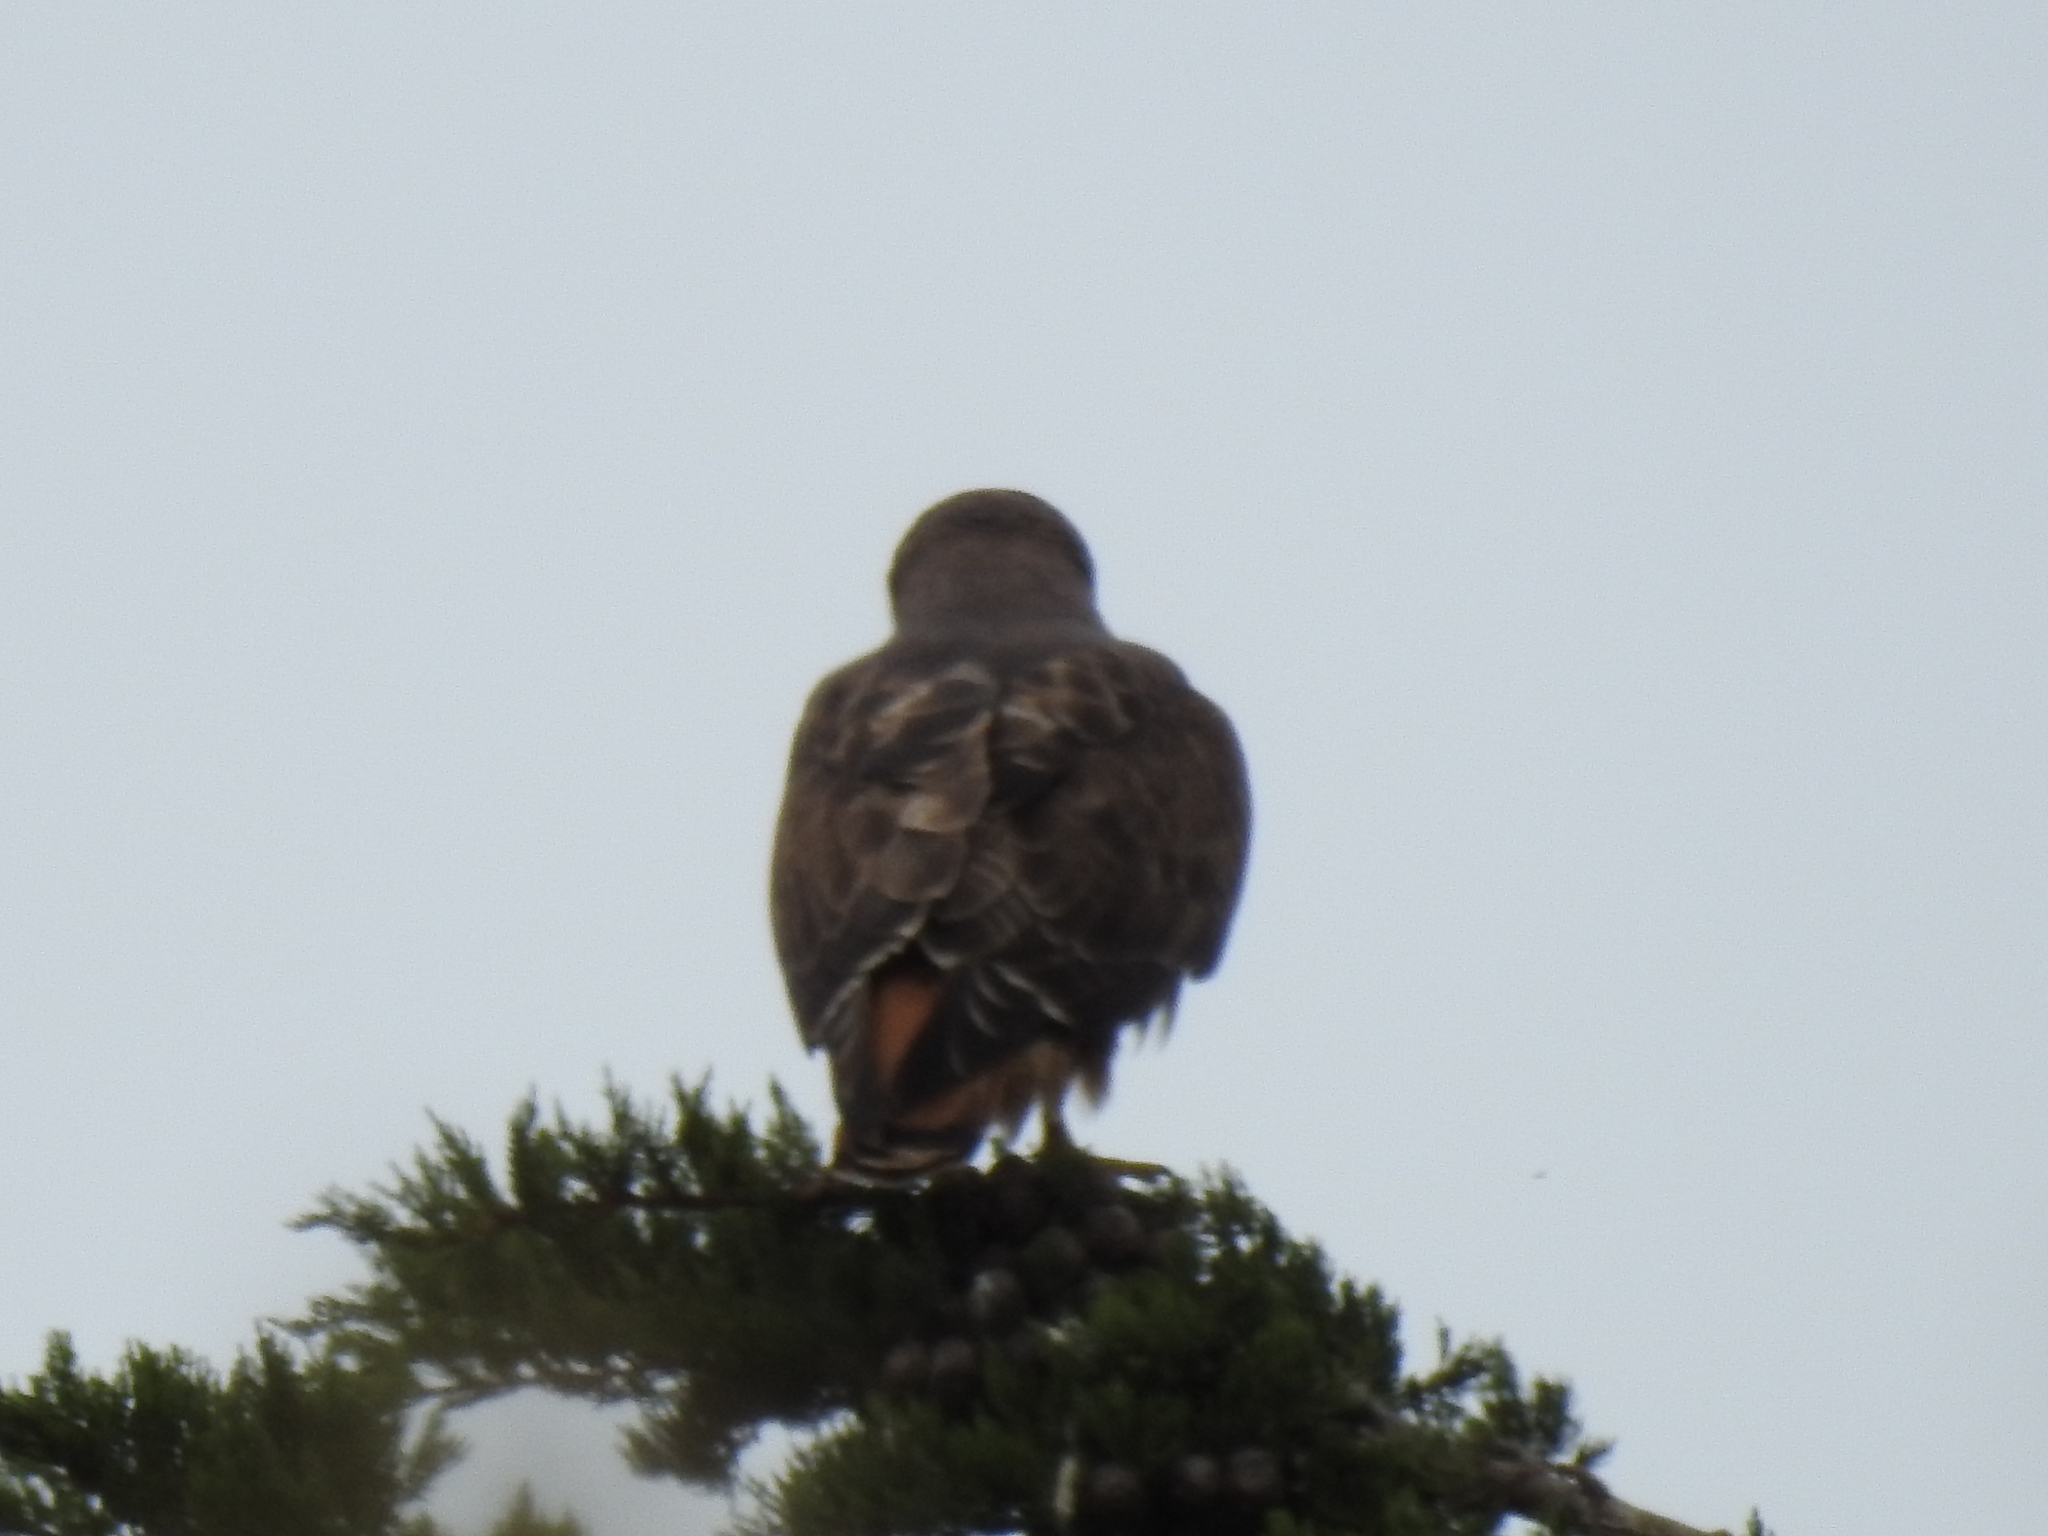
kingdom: Animalia
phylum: Chordata
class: Aves
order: Accipitriformes
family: Accipitridae
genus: Buteo
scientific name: Buteo jamaicensis
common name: Red-tailed hawk
